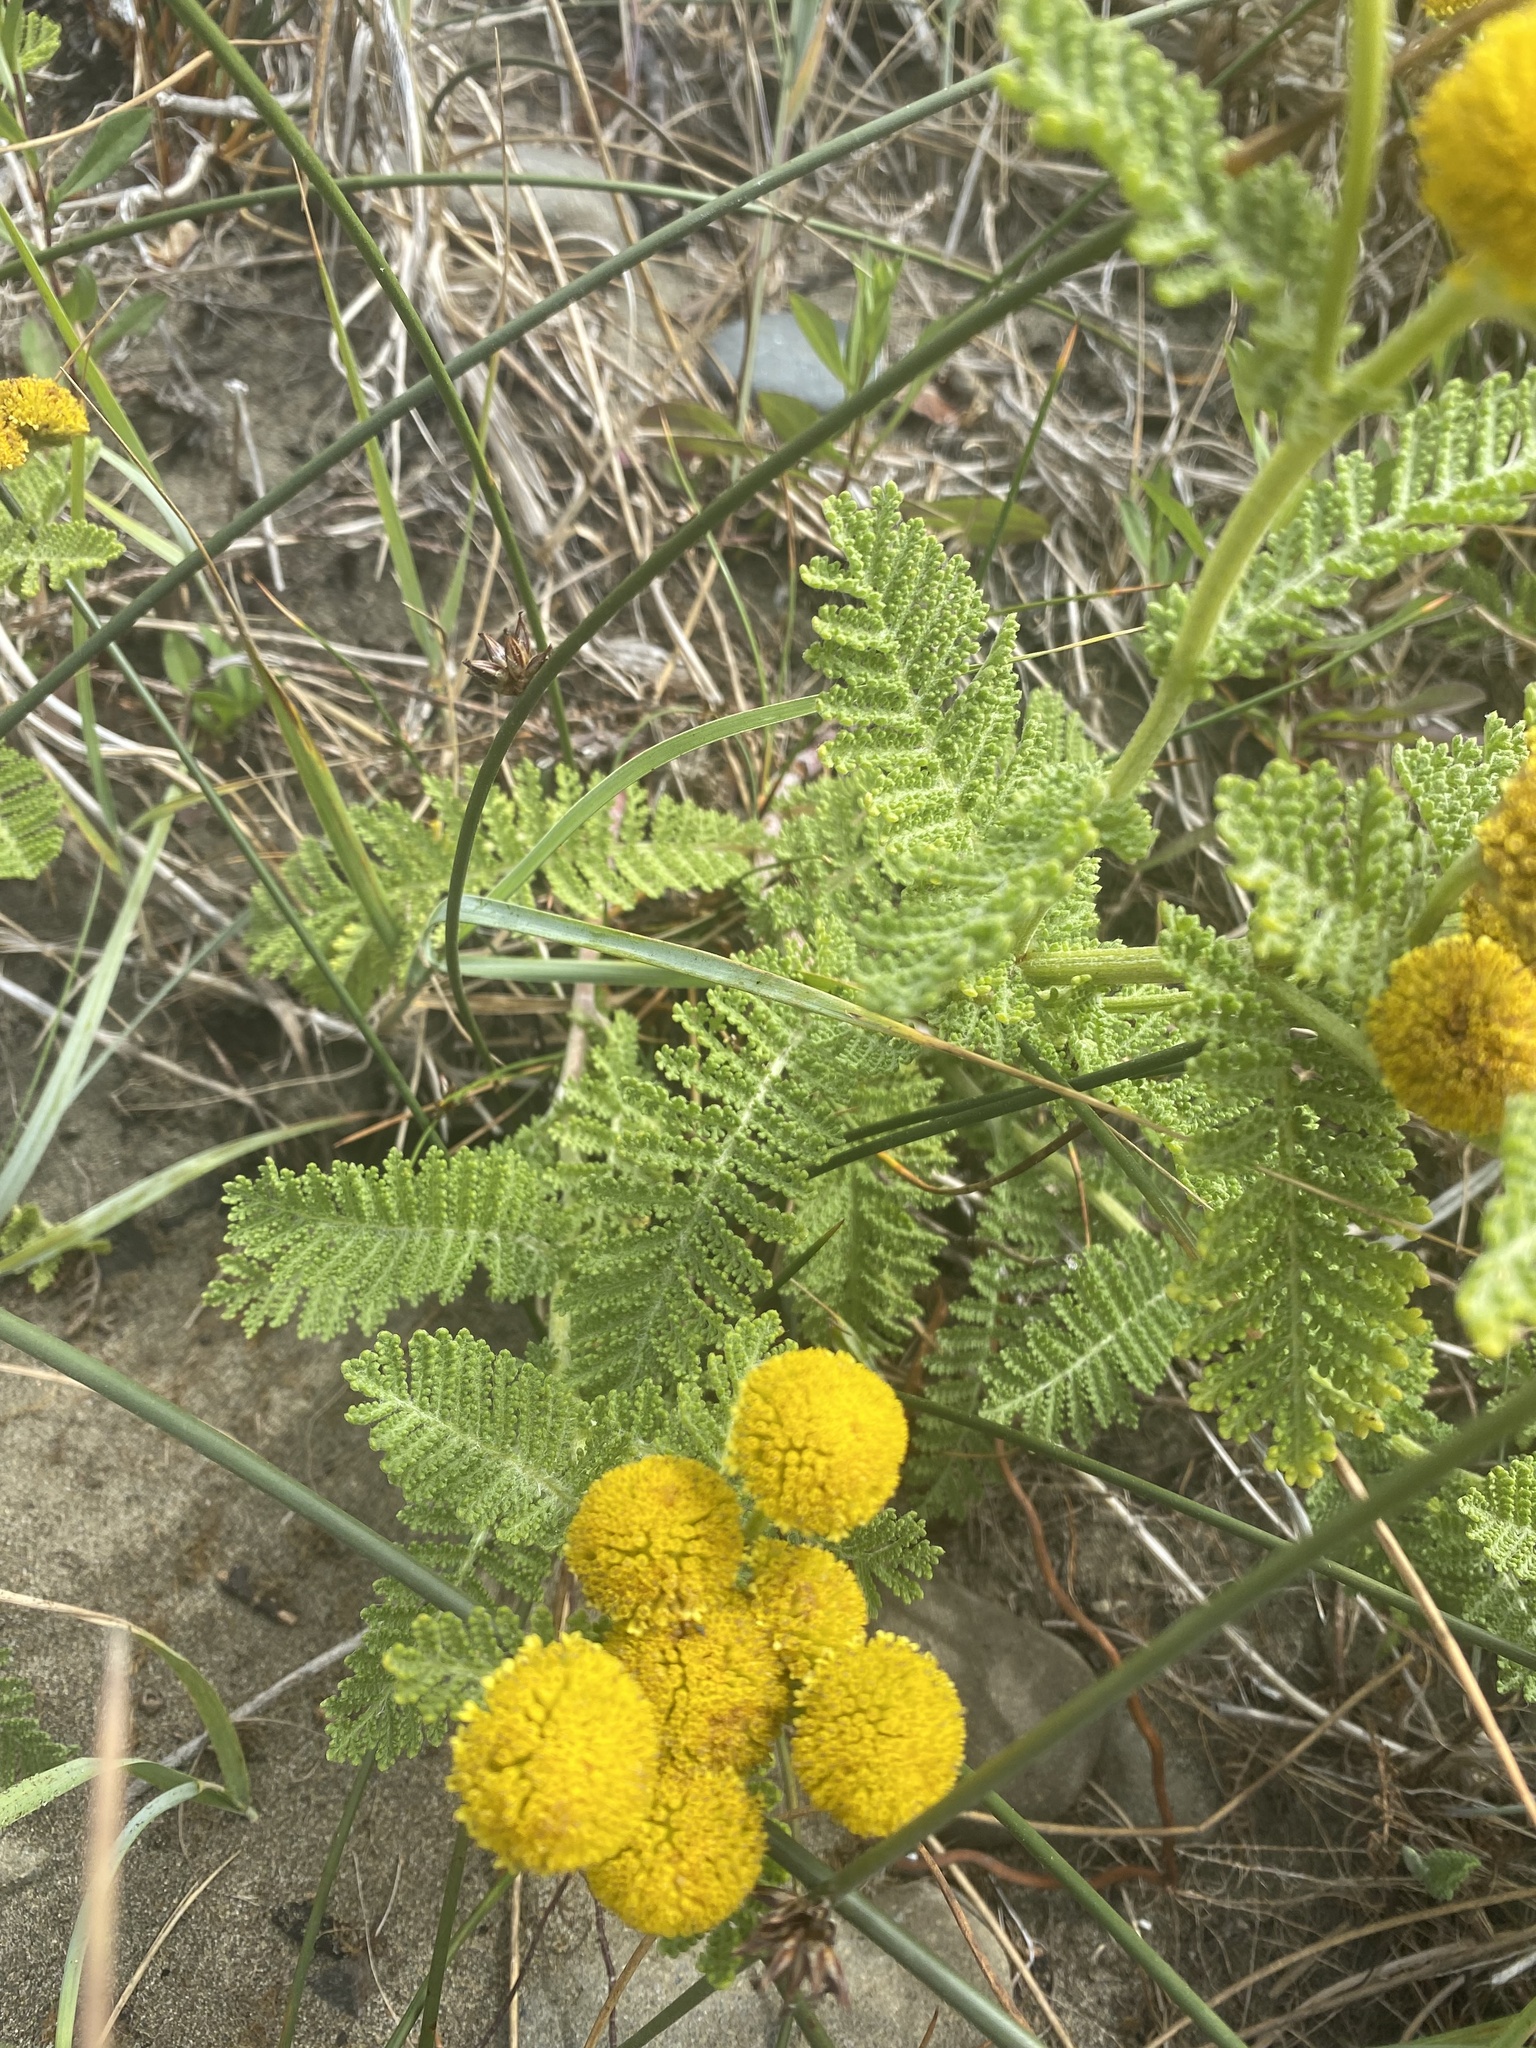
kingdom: Plantae
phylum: Tracheophyta
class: Magnoliopsida
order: Asterales
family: Asteraceae
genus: Tanacetum
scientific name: Tanacetum bipinnatum
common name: Dwarf tansy
